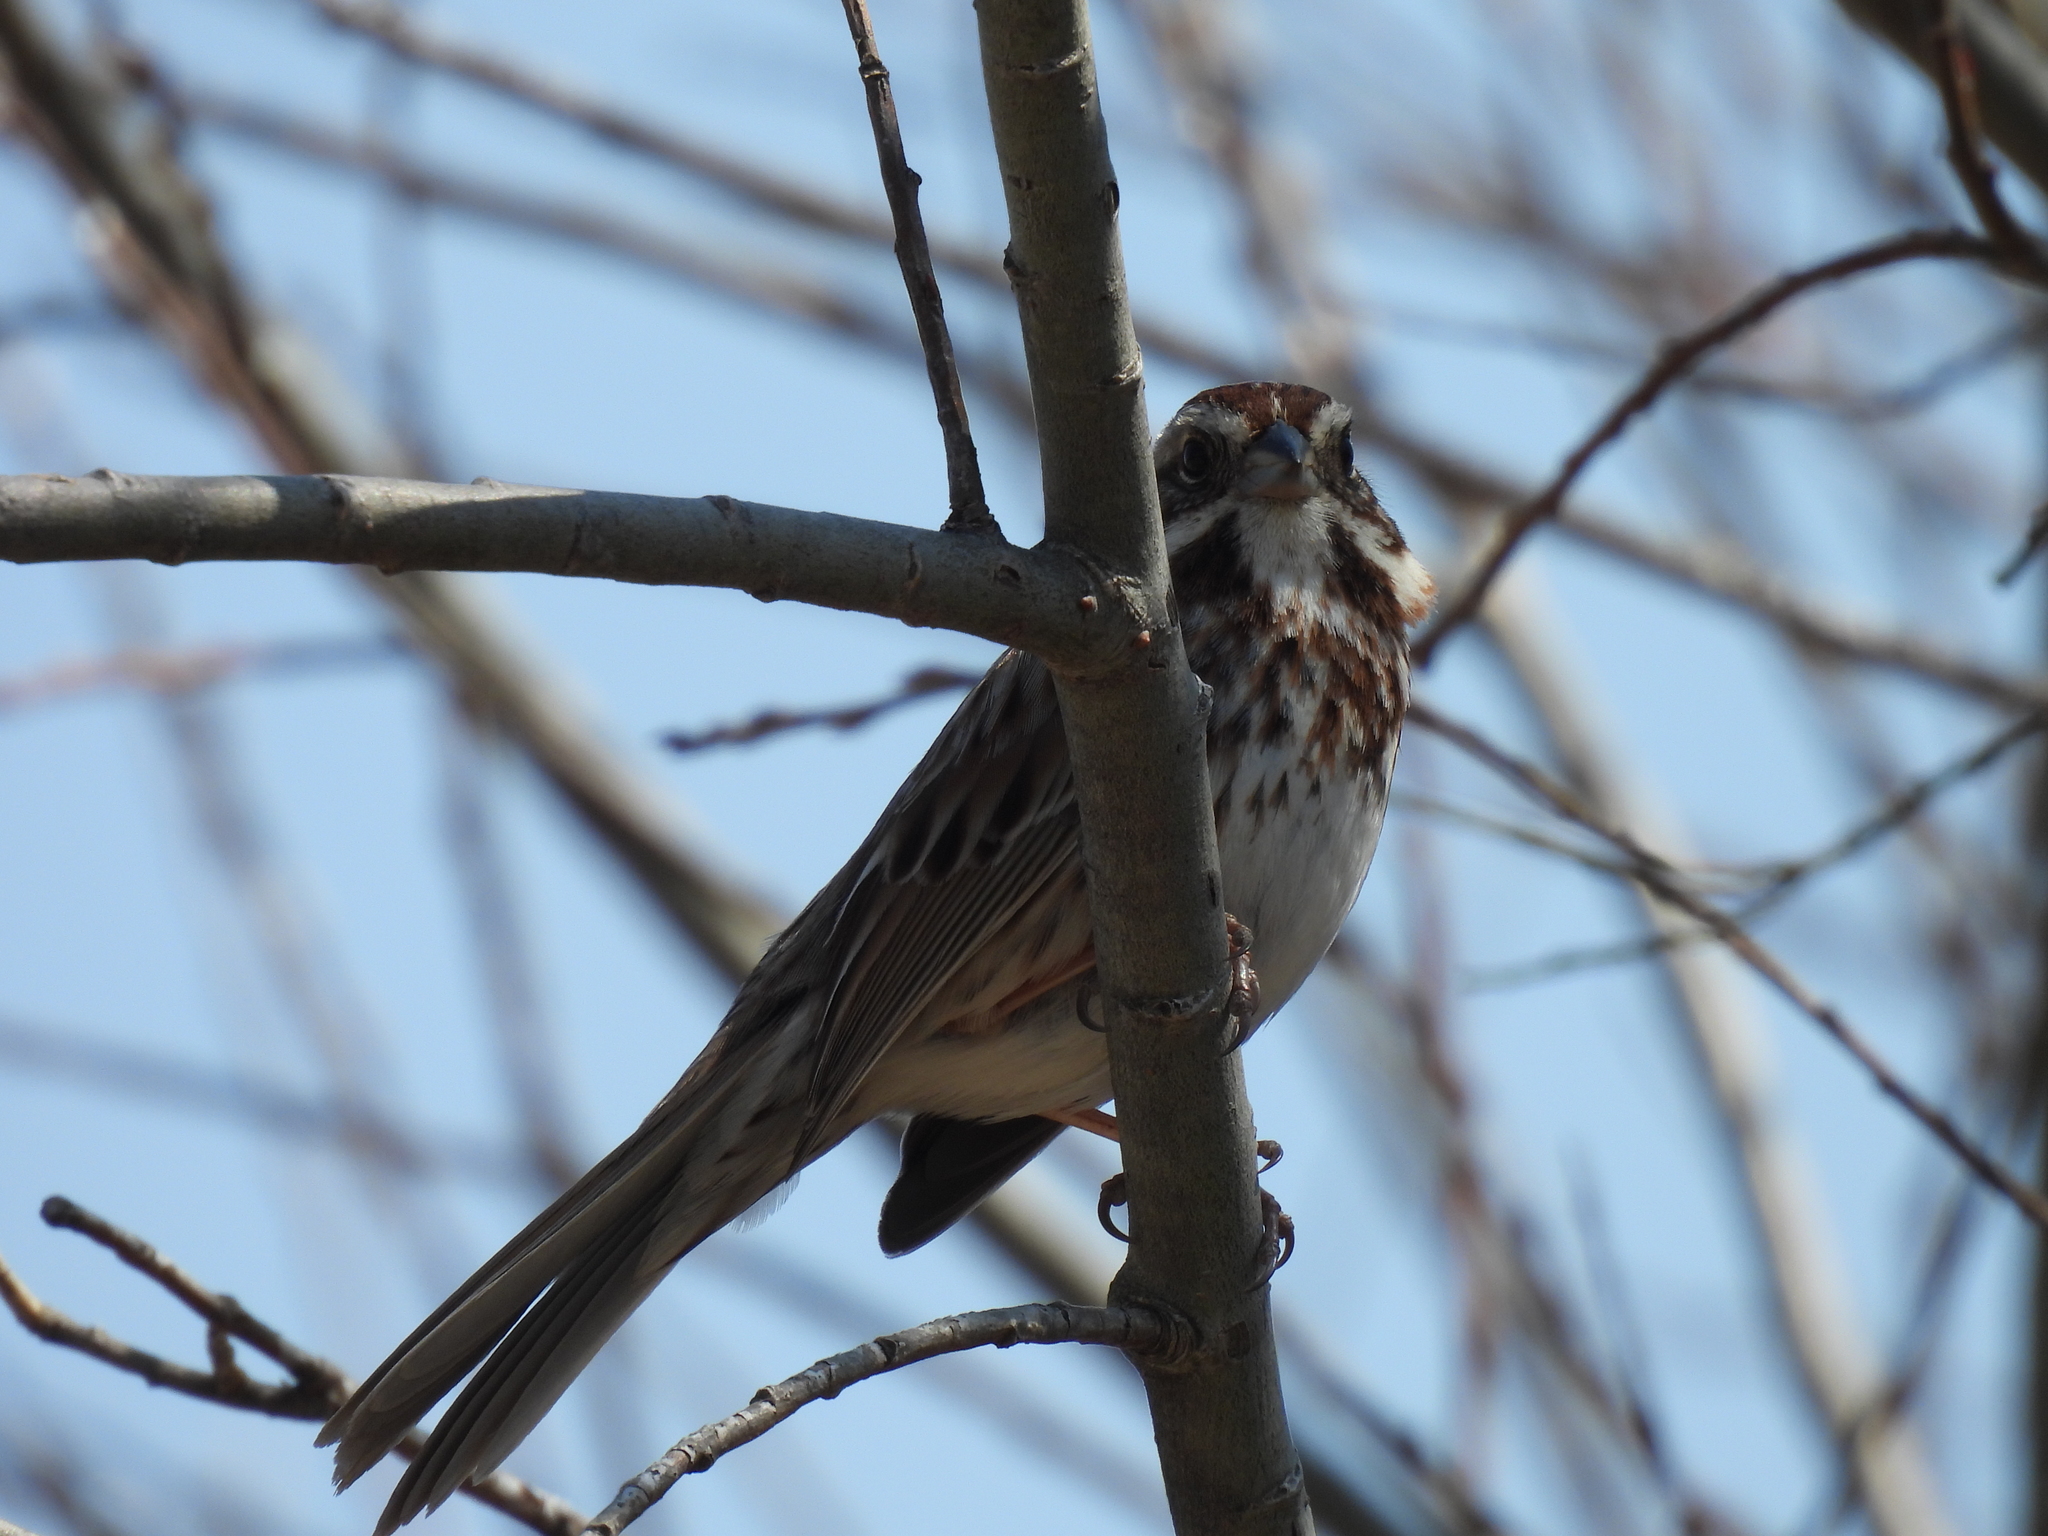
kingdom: Animalia
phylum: Chordata
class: Aves
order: Passeriformes
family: Passerellidae
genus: Melospiza
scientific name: Melospiza melodia
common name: Song sparrow
